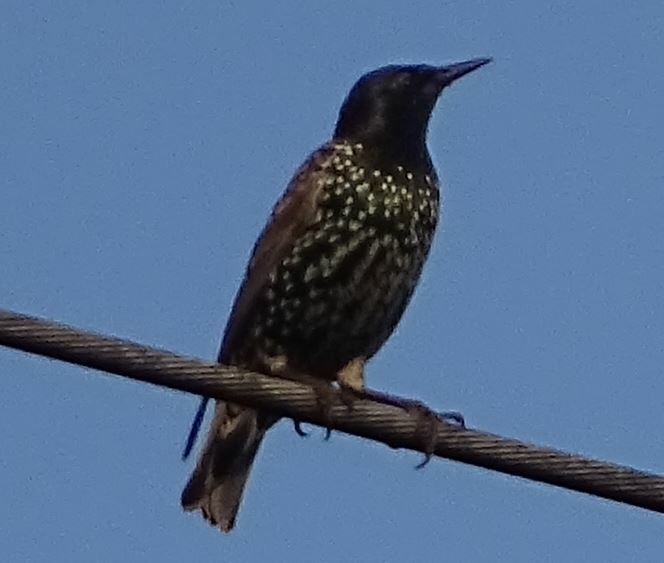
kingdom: Animalia
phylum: Chordata
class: Aves
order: Passeriformes
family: Sturnidae
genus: Sturnus
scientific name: Sturnus vulgaris
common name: Common starling
